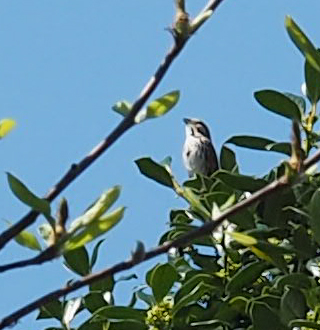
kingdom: Animalia
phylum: Chordata
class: Aves
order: Passeriformes
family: Passerellidae
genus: Melospiza
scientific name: Melospiza melodia
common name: Song sparrow
